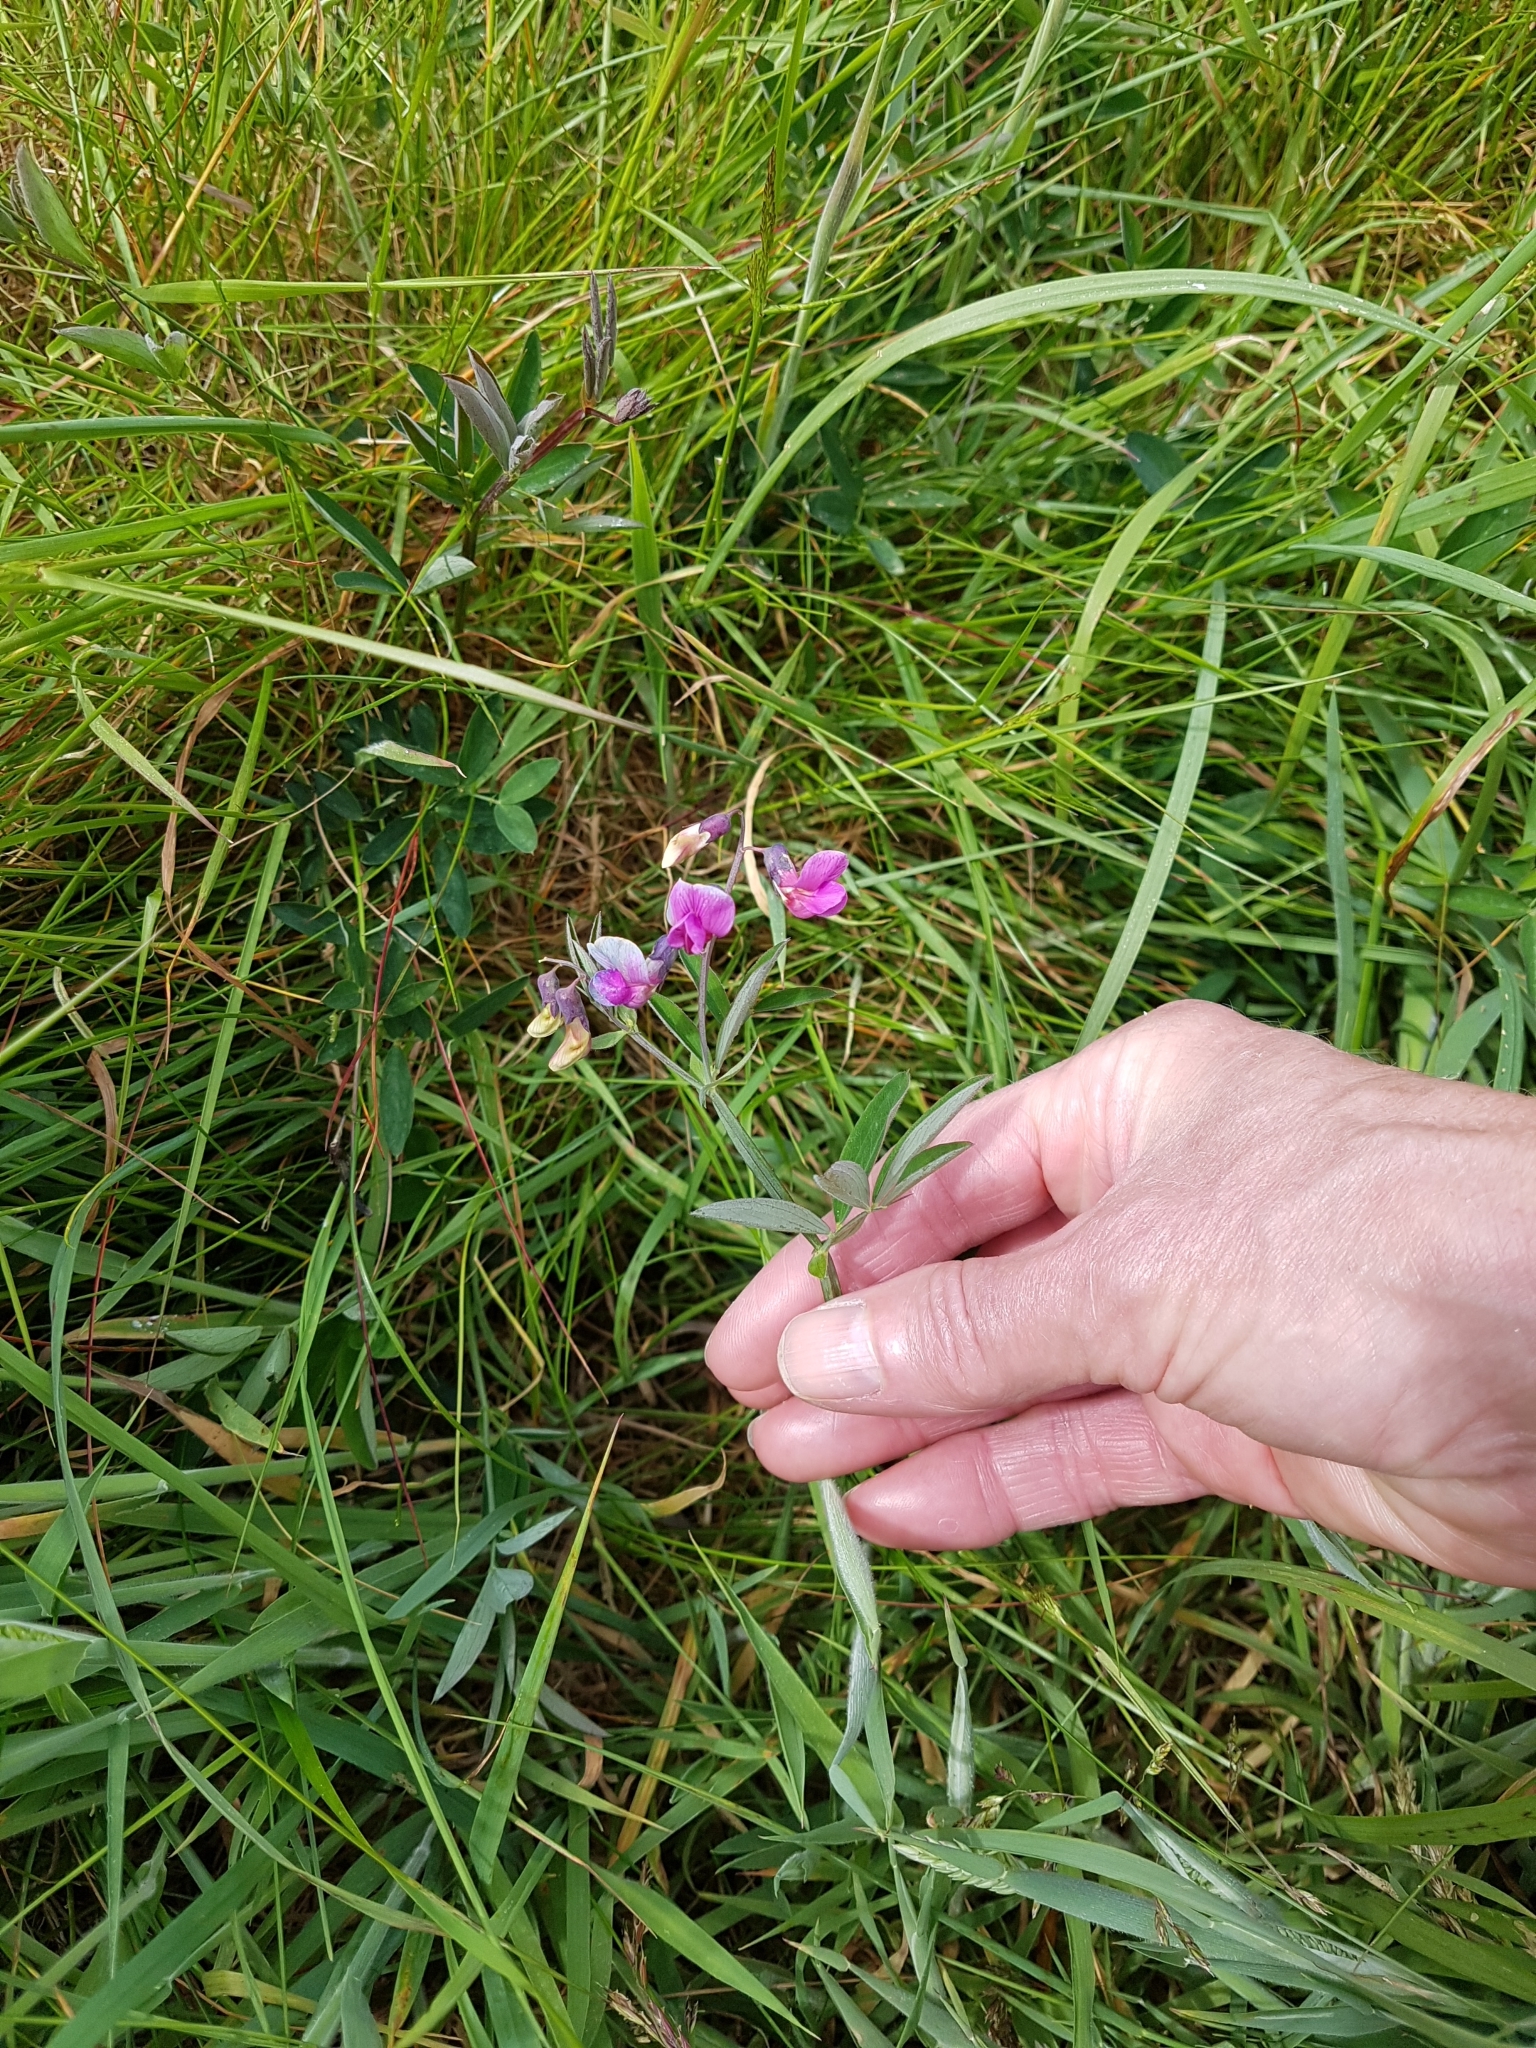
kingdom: Plantae
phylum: Tracheophyta
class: Magnoliopsida
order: Fabales
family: Fabaceae
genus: Lathyrus
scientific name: Lathyrus linifolius
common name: Bitter-vetch
